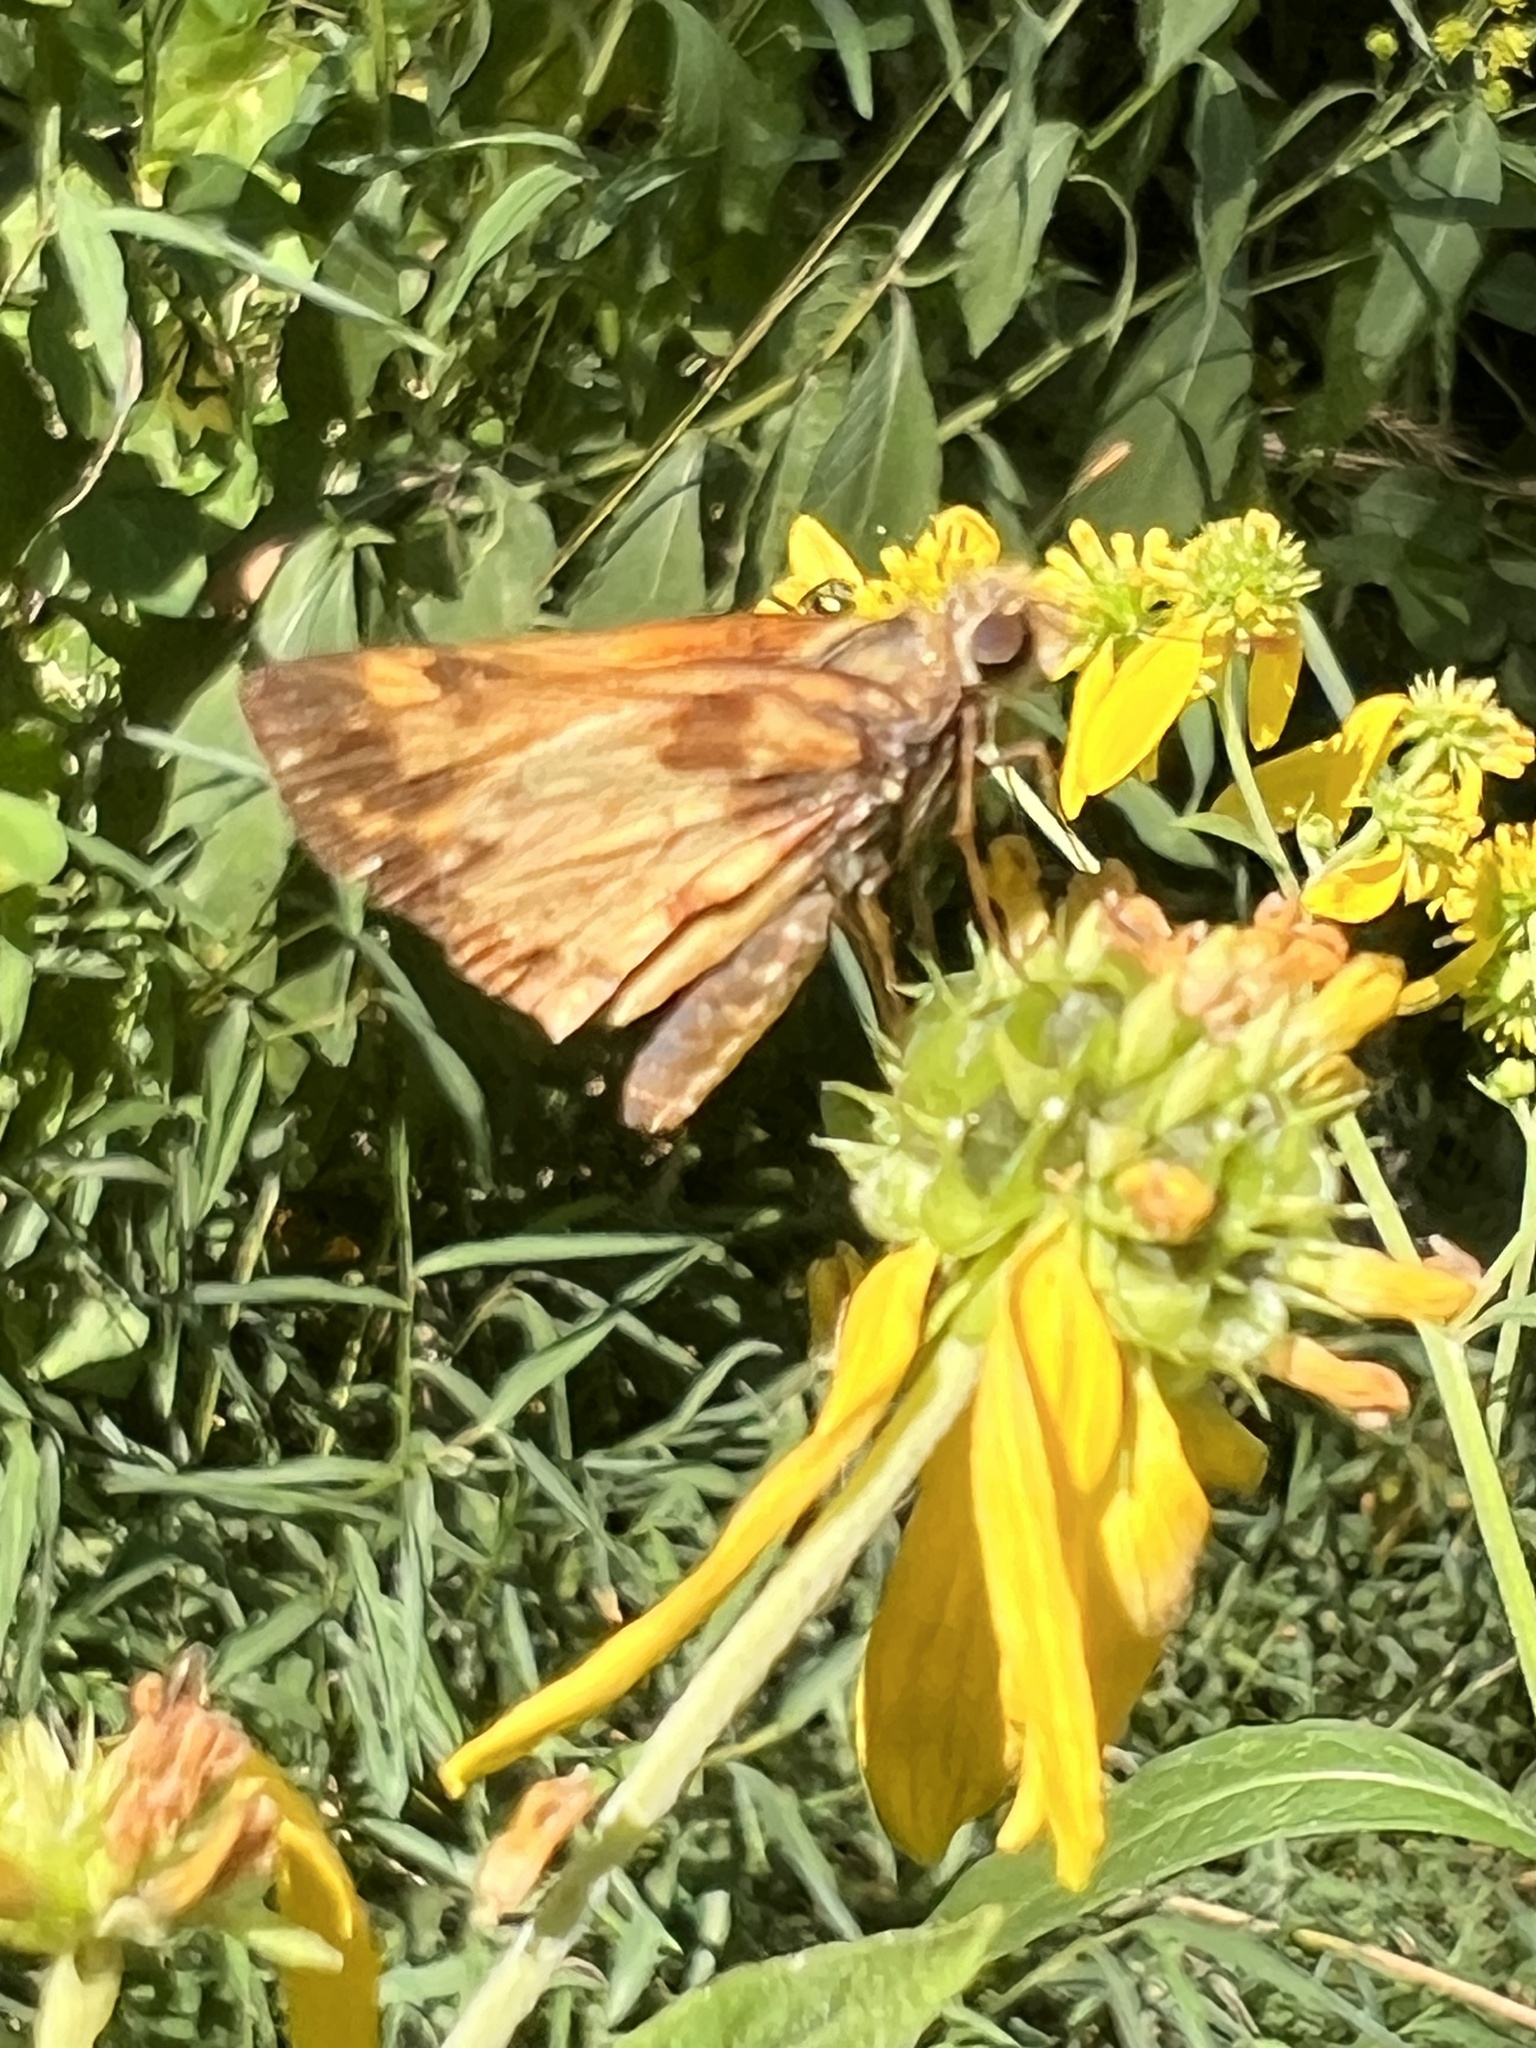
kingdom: Animalia
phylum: Arthropoda
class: Insecta
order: Lepidoptera
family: Hesperiidae
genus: Lon
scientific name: Lon zabulon
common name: Zabulon skipper
